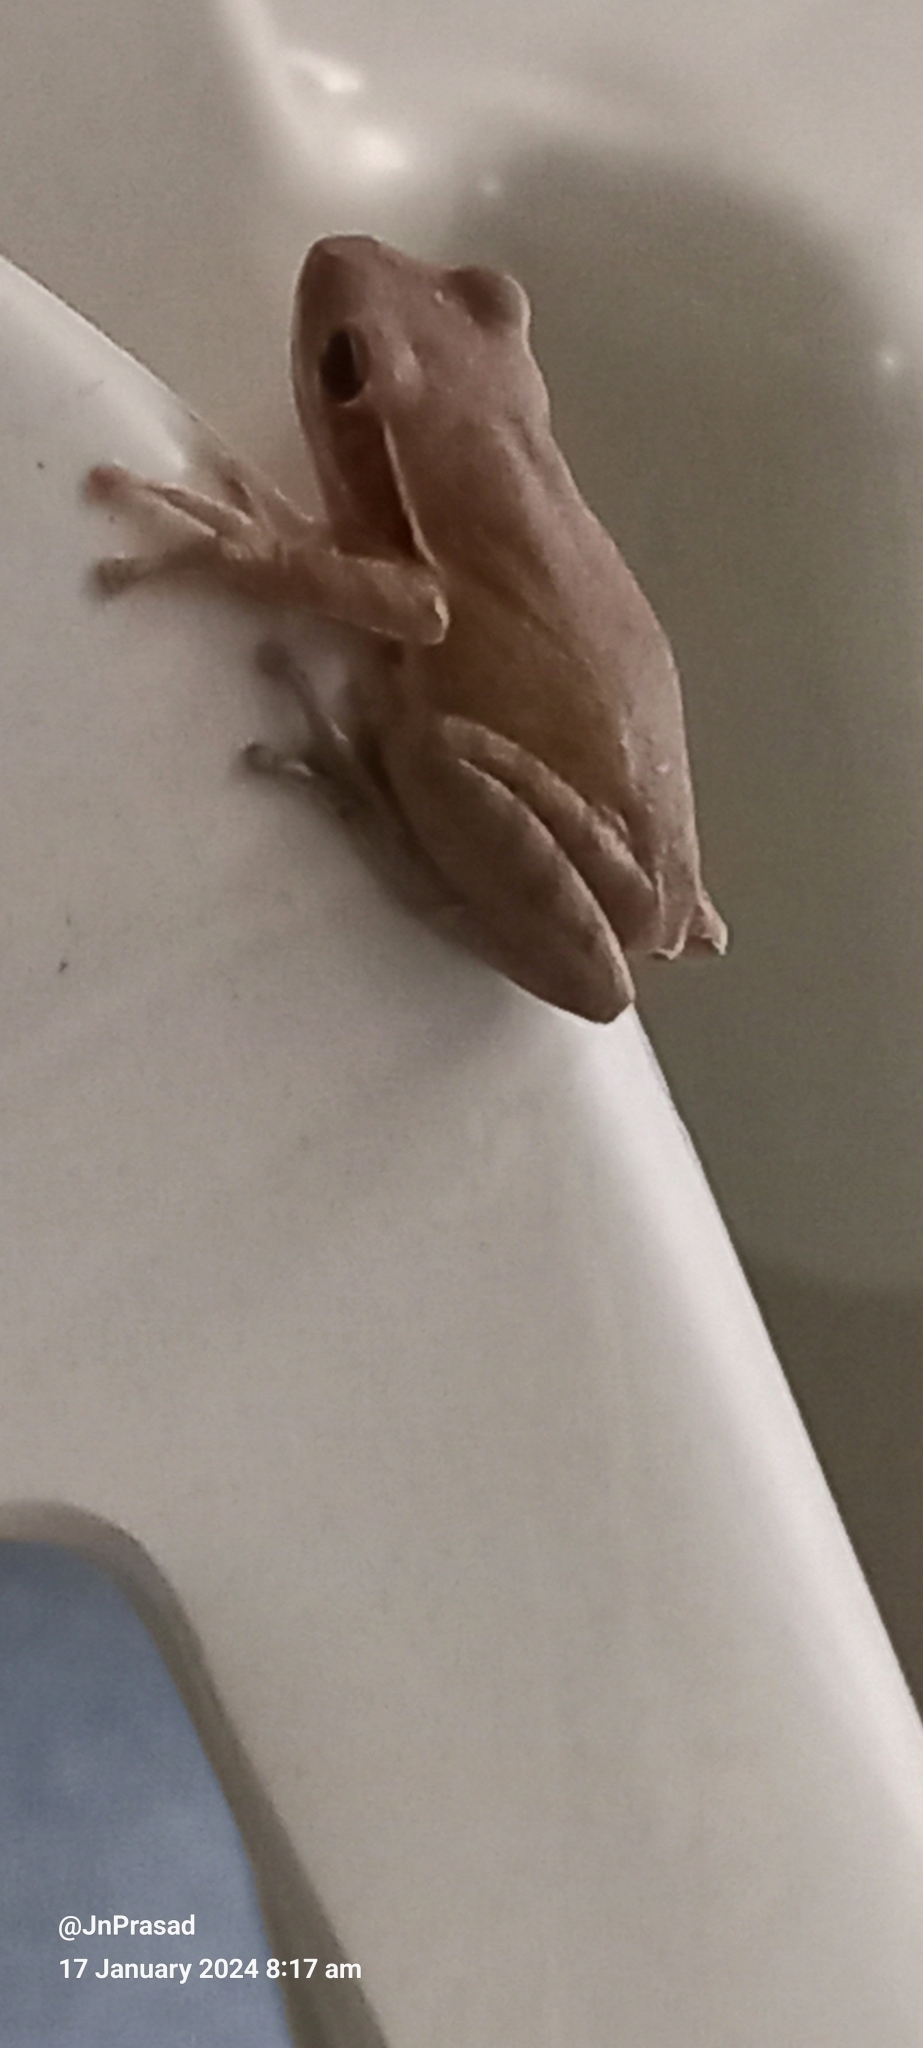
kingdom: Animalia
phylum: Chordata
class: Amphibia
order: Anura
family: Rhacophoridae
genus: Polypedates
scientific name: Polypedates maculatus
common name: Himalayan tree frog
